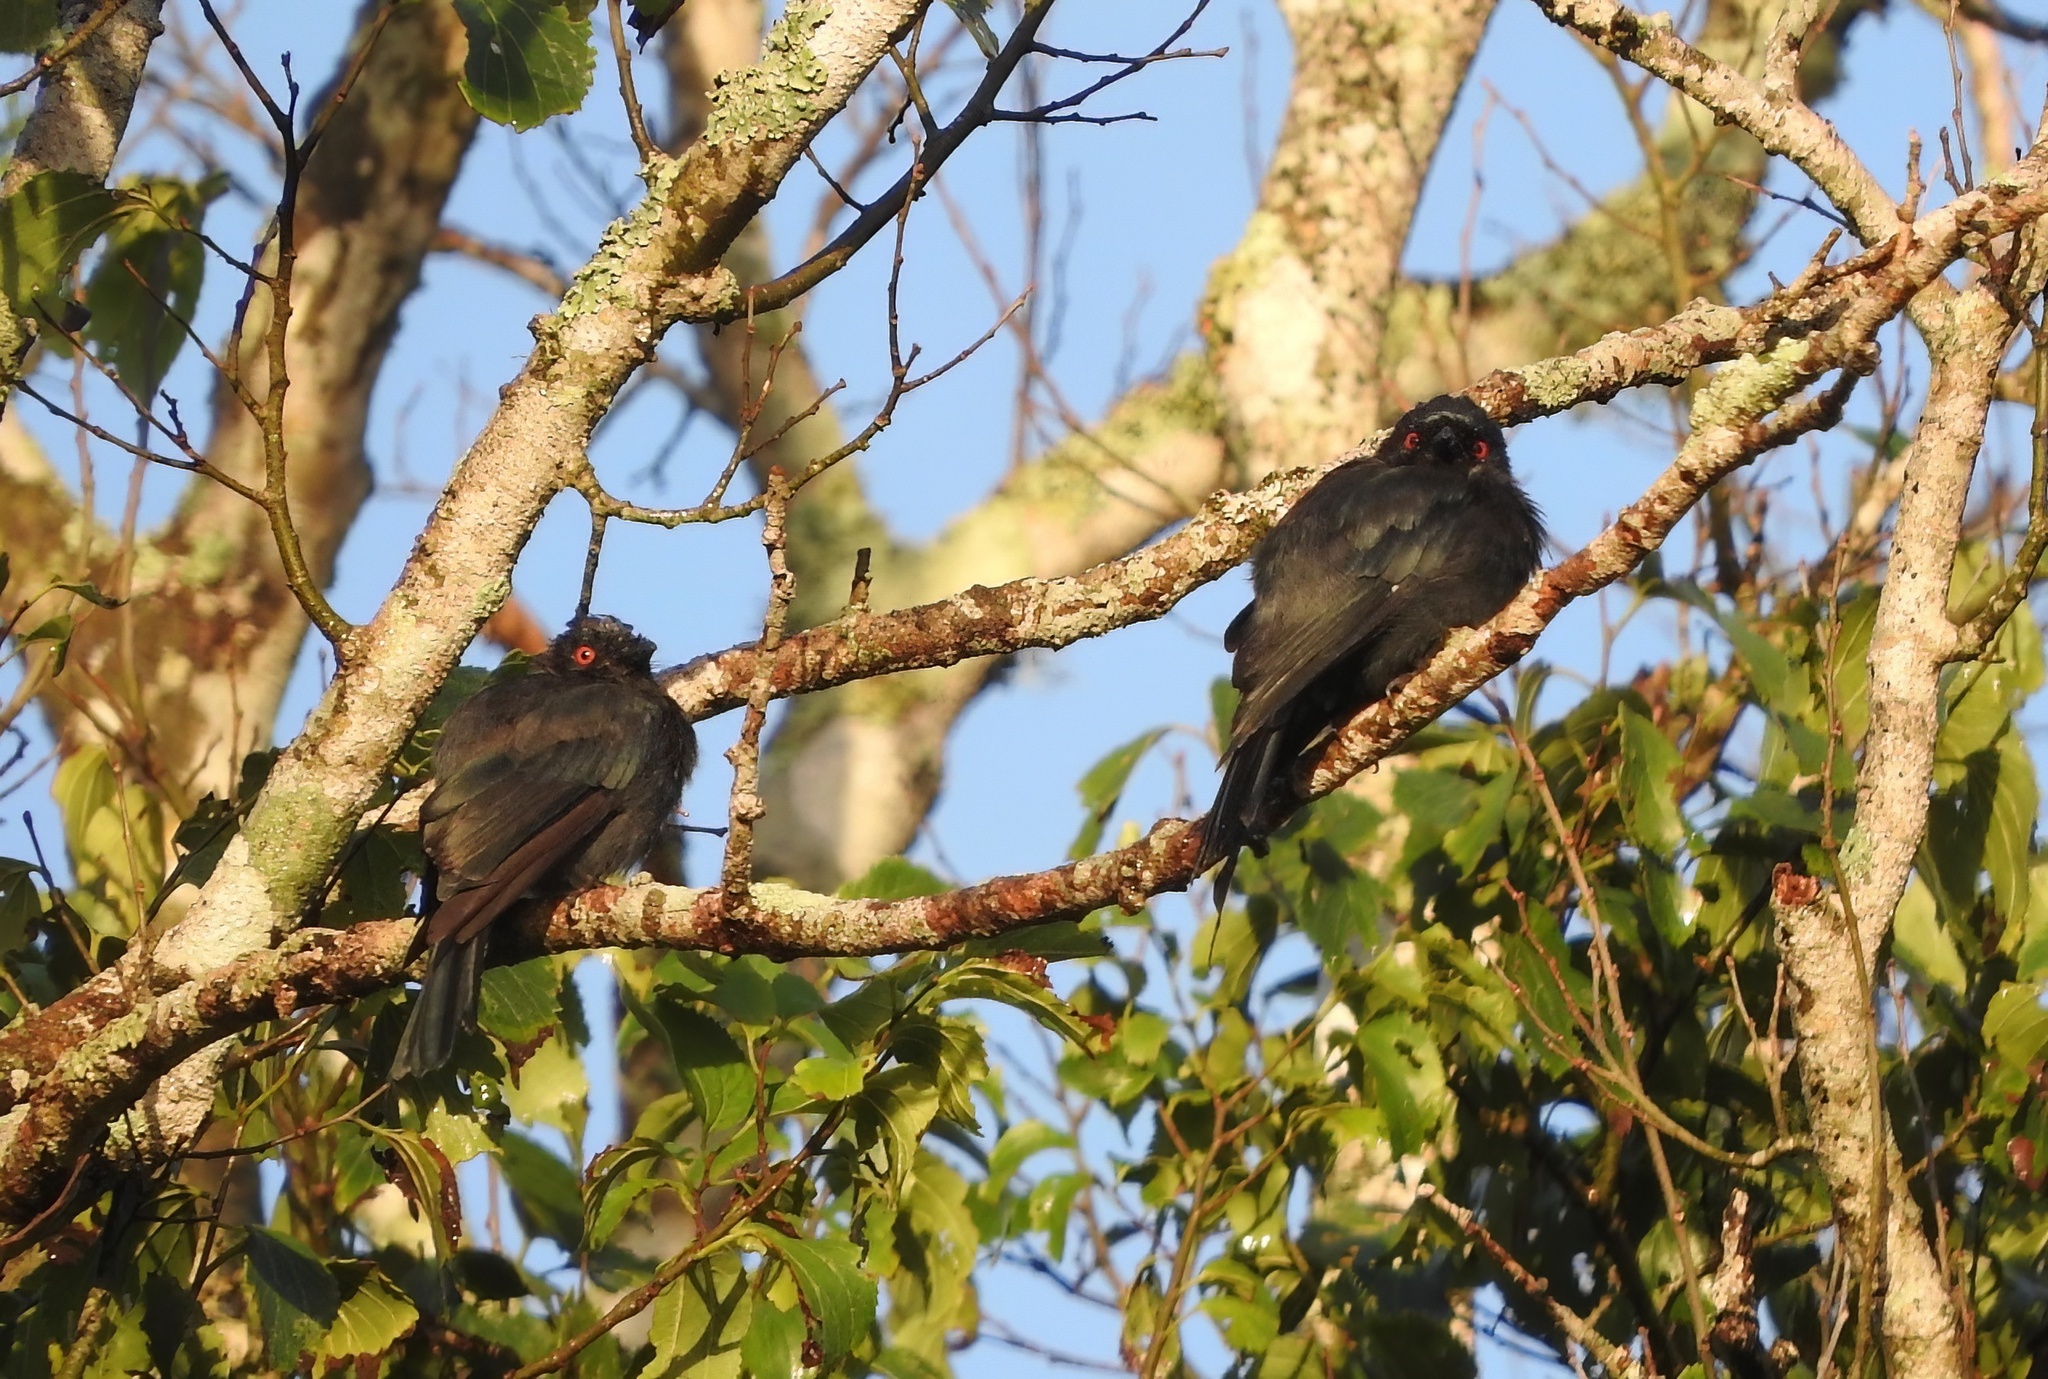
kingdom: Animalia
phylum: Chordata
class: Aves
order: Passeriformes
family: Dicruridae
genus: Dicrurus
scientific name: Dicrurus ludwigii
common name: Square-tailed drongo
